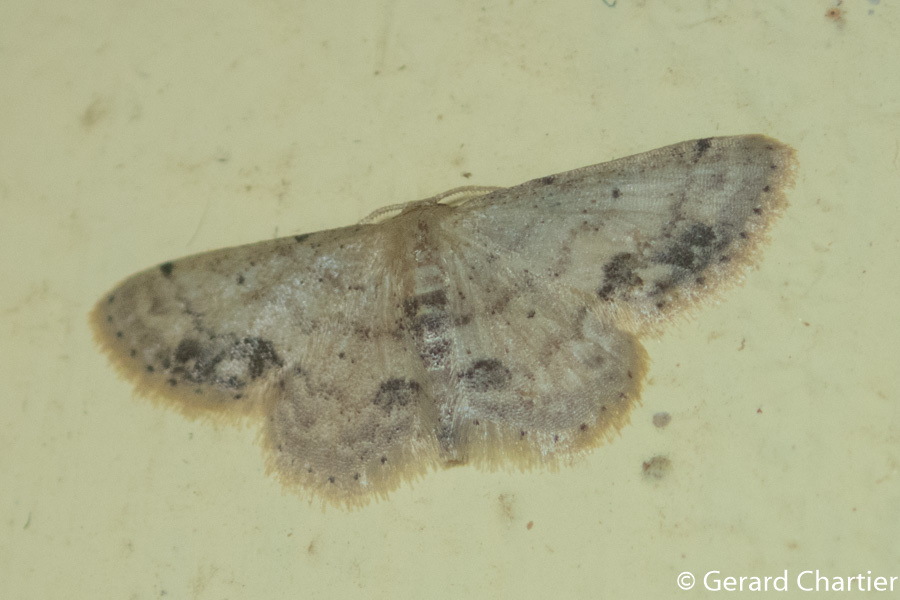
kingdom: Animalia
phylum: Arthropoda
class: Insecta
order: Lepidoptera
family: Geometridae
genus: Idaea
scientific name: Idaea chotaria
